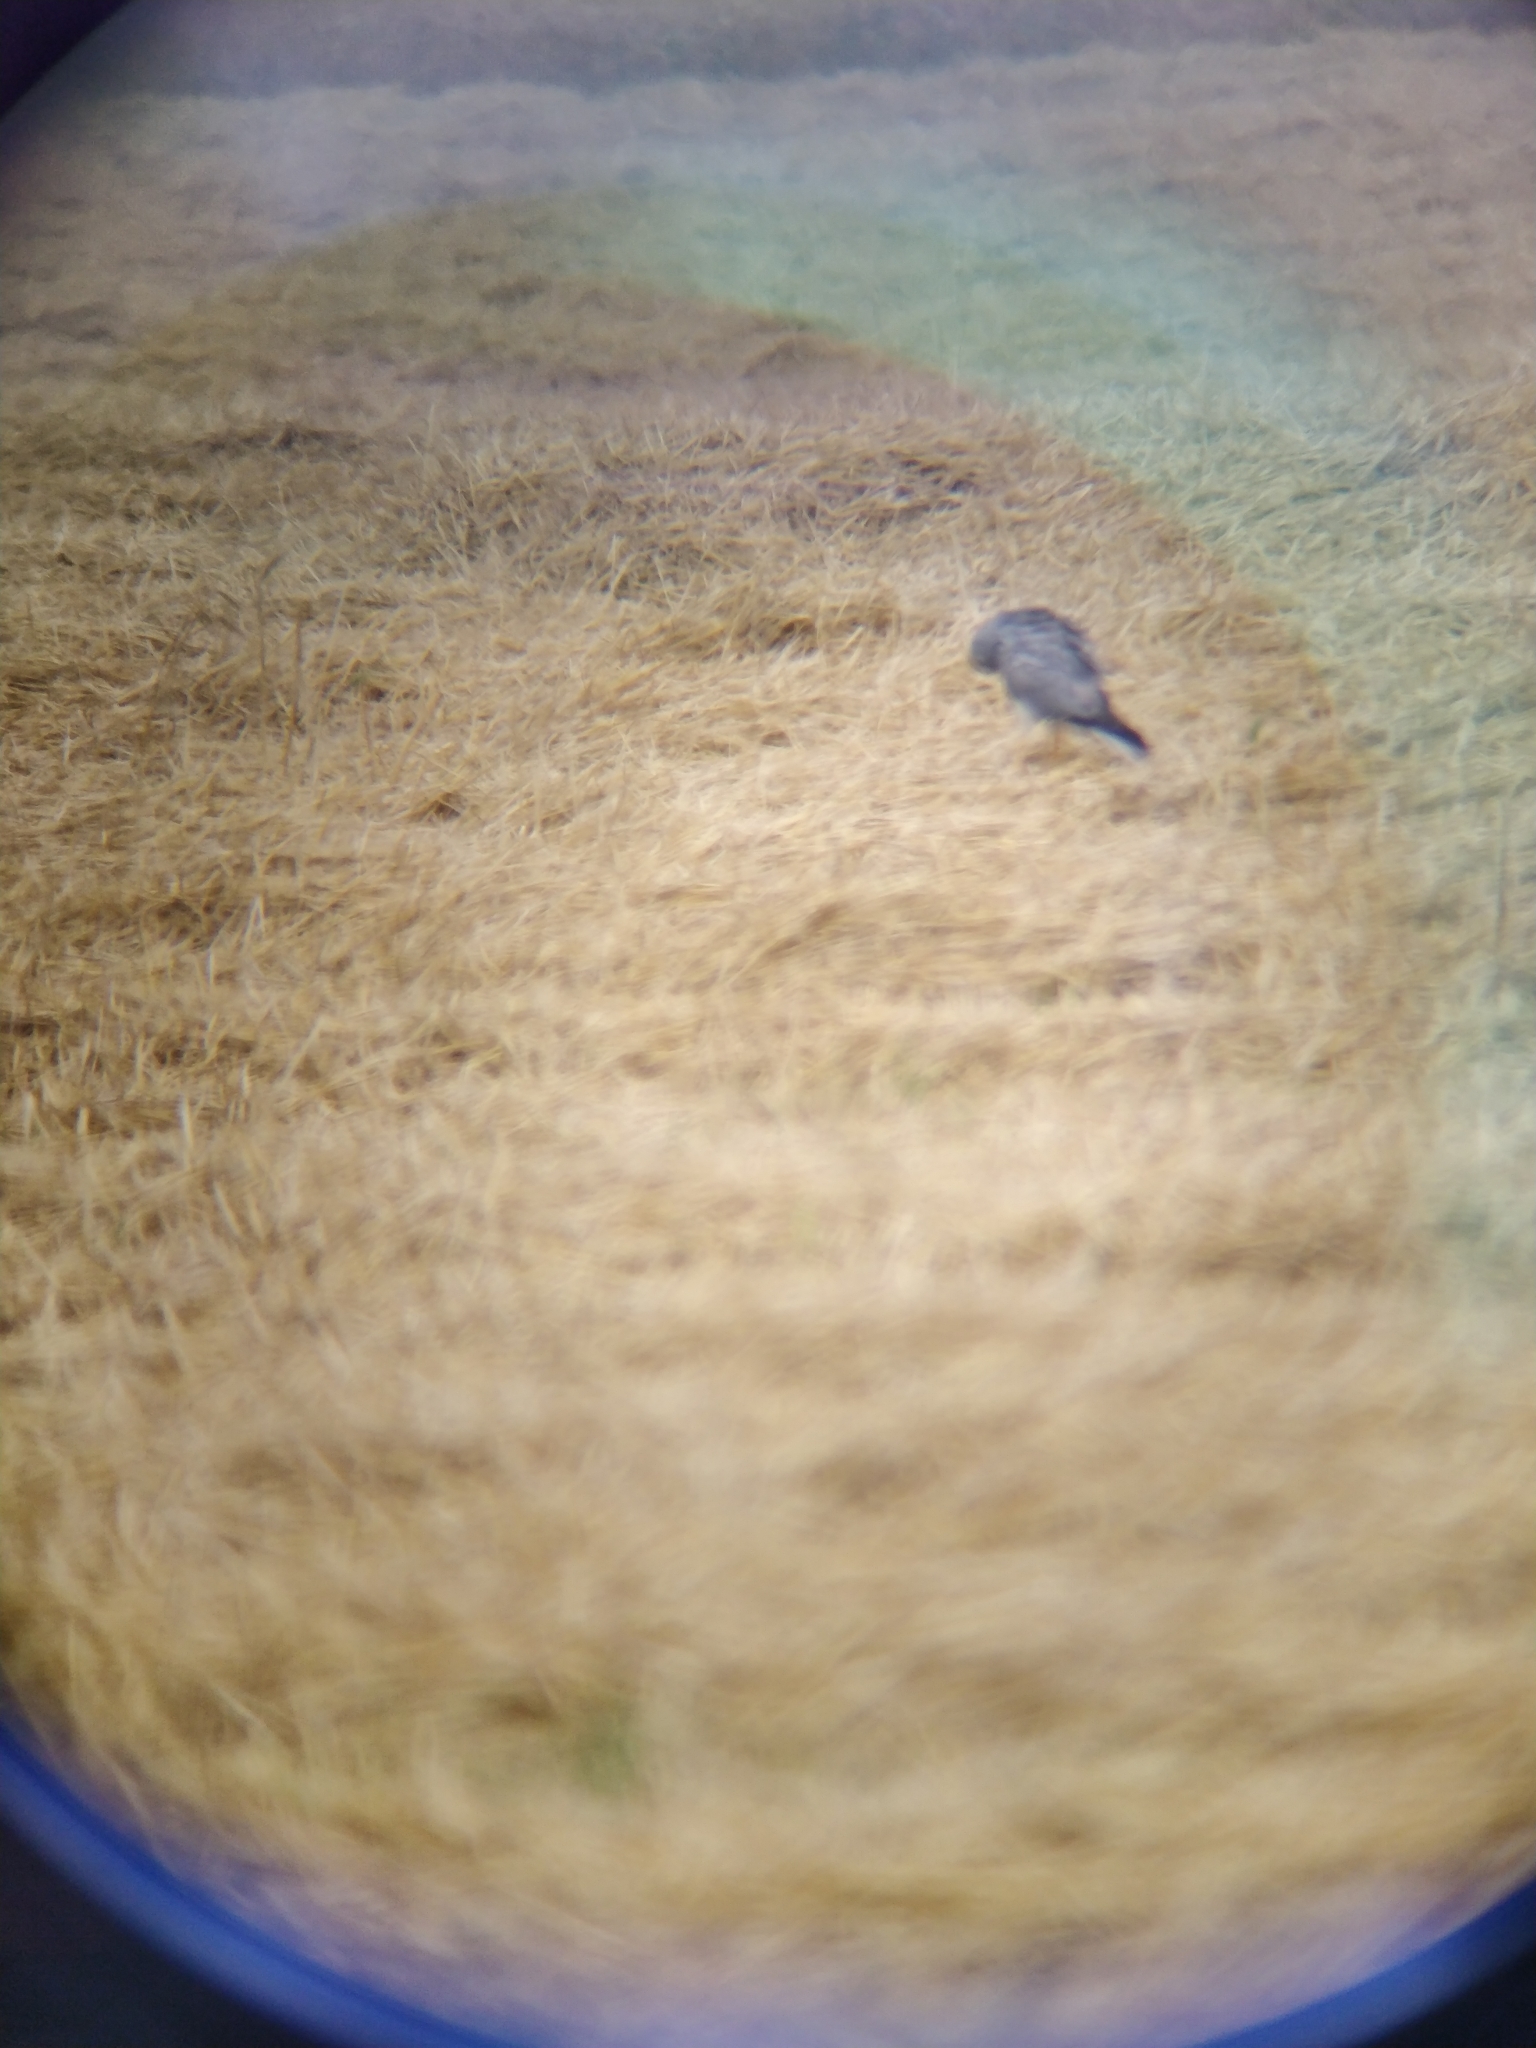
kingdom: Animalia
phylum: Chordata
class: Aves
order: Accipitriformes
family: Accipitridae
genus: Circus
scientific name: Circus pygargus
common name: Montagu's harrier
